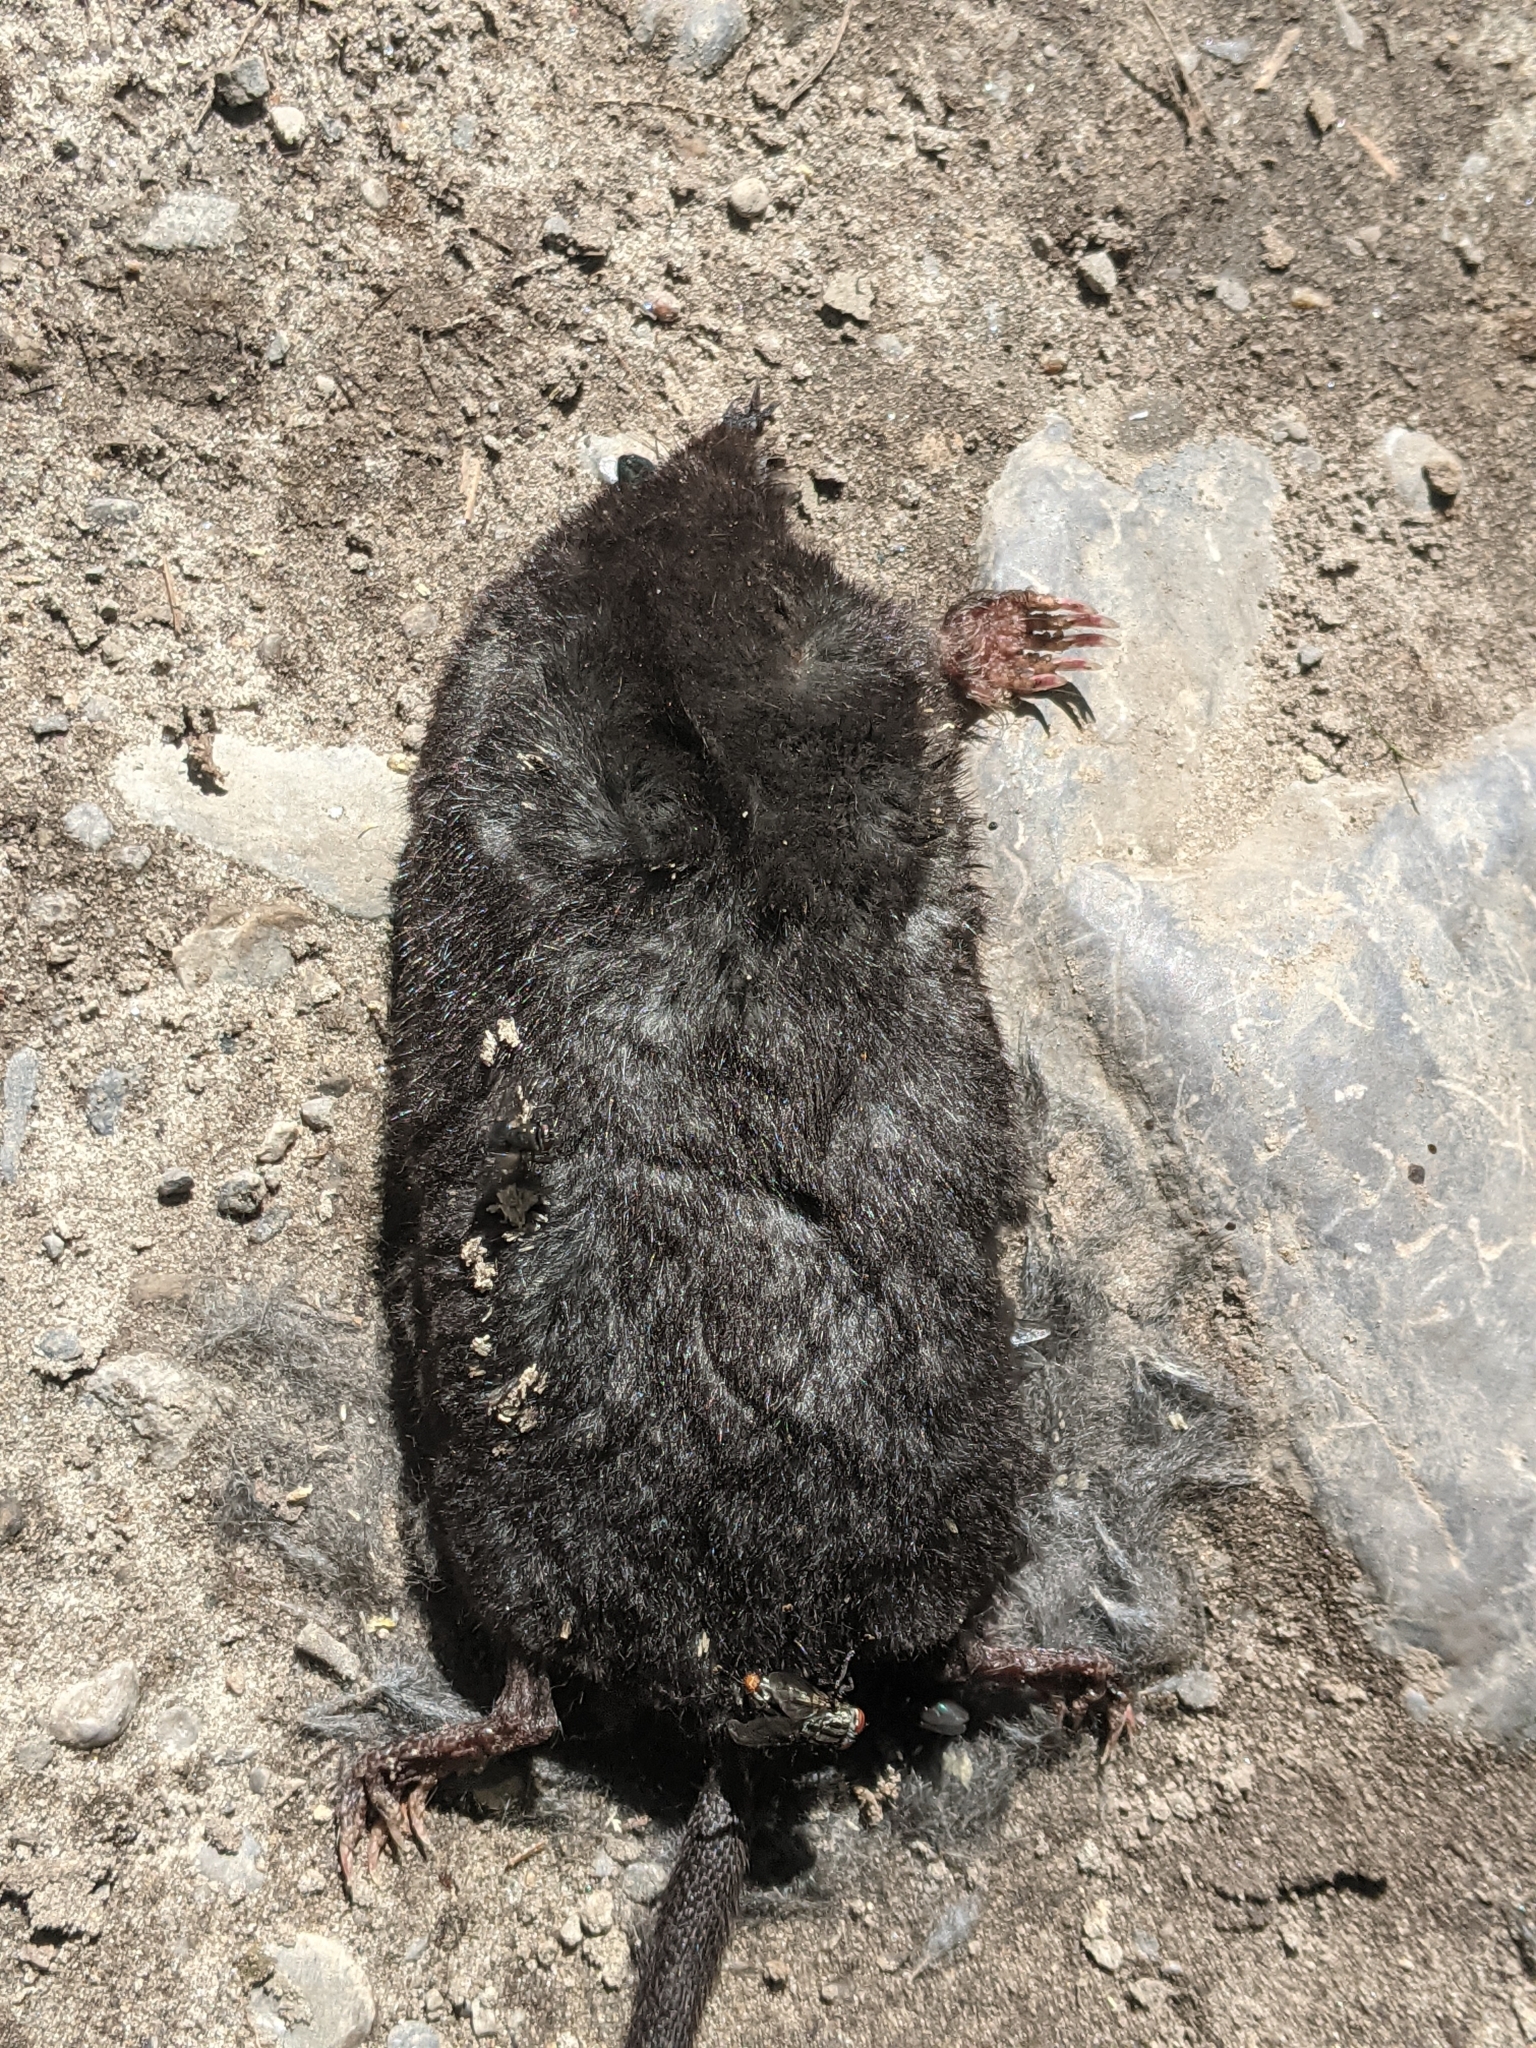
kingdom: Animalia
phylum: Chordata
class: Mammalia
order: Soricomorpha
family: Talpidae
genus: Condylura
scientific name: Condylura cristata
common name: Star-nosed mole
